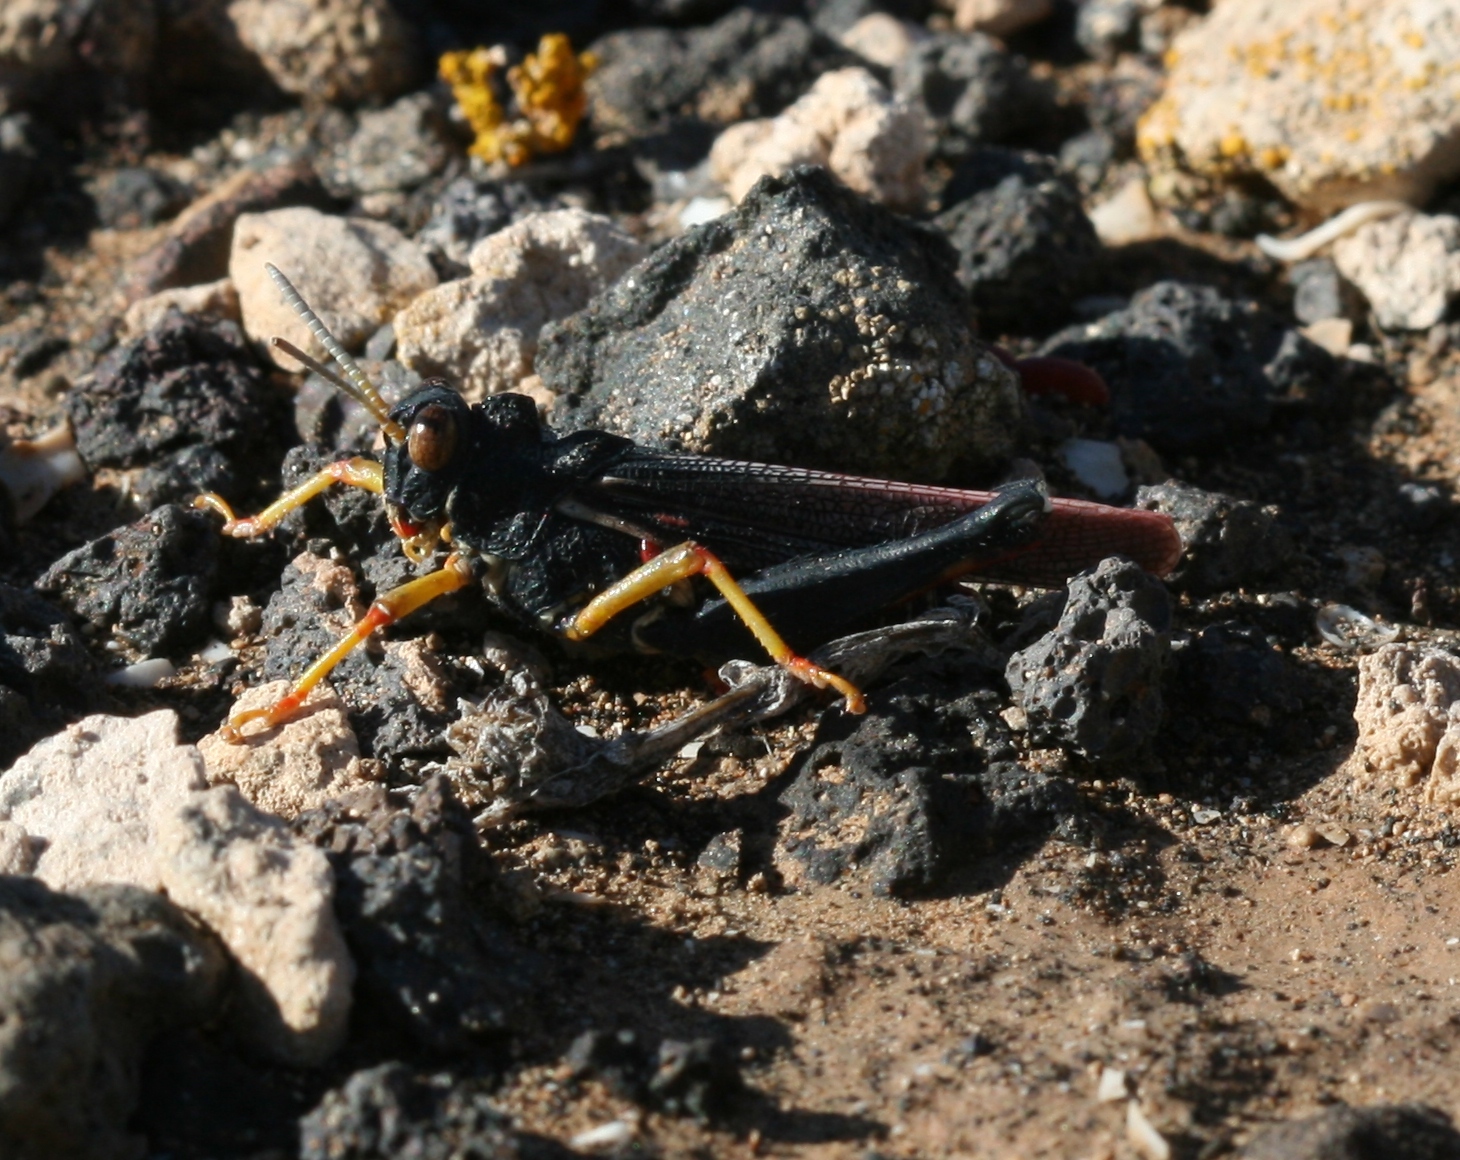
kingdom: Animalia
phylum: Arthropoda
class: Insecta
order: Orthoptera
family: Dericorythidae
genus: Dericorys
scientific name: Dericorys lobata
